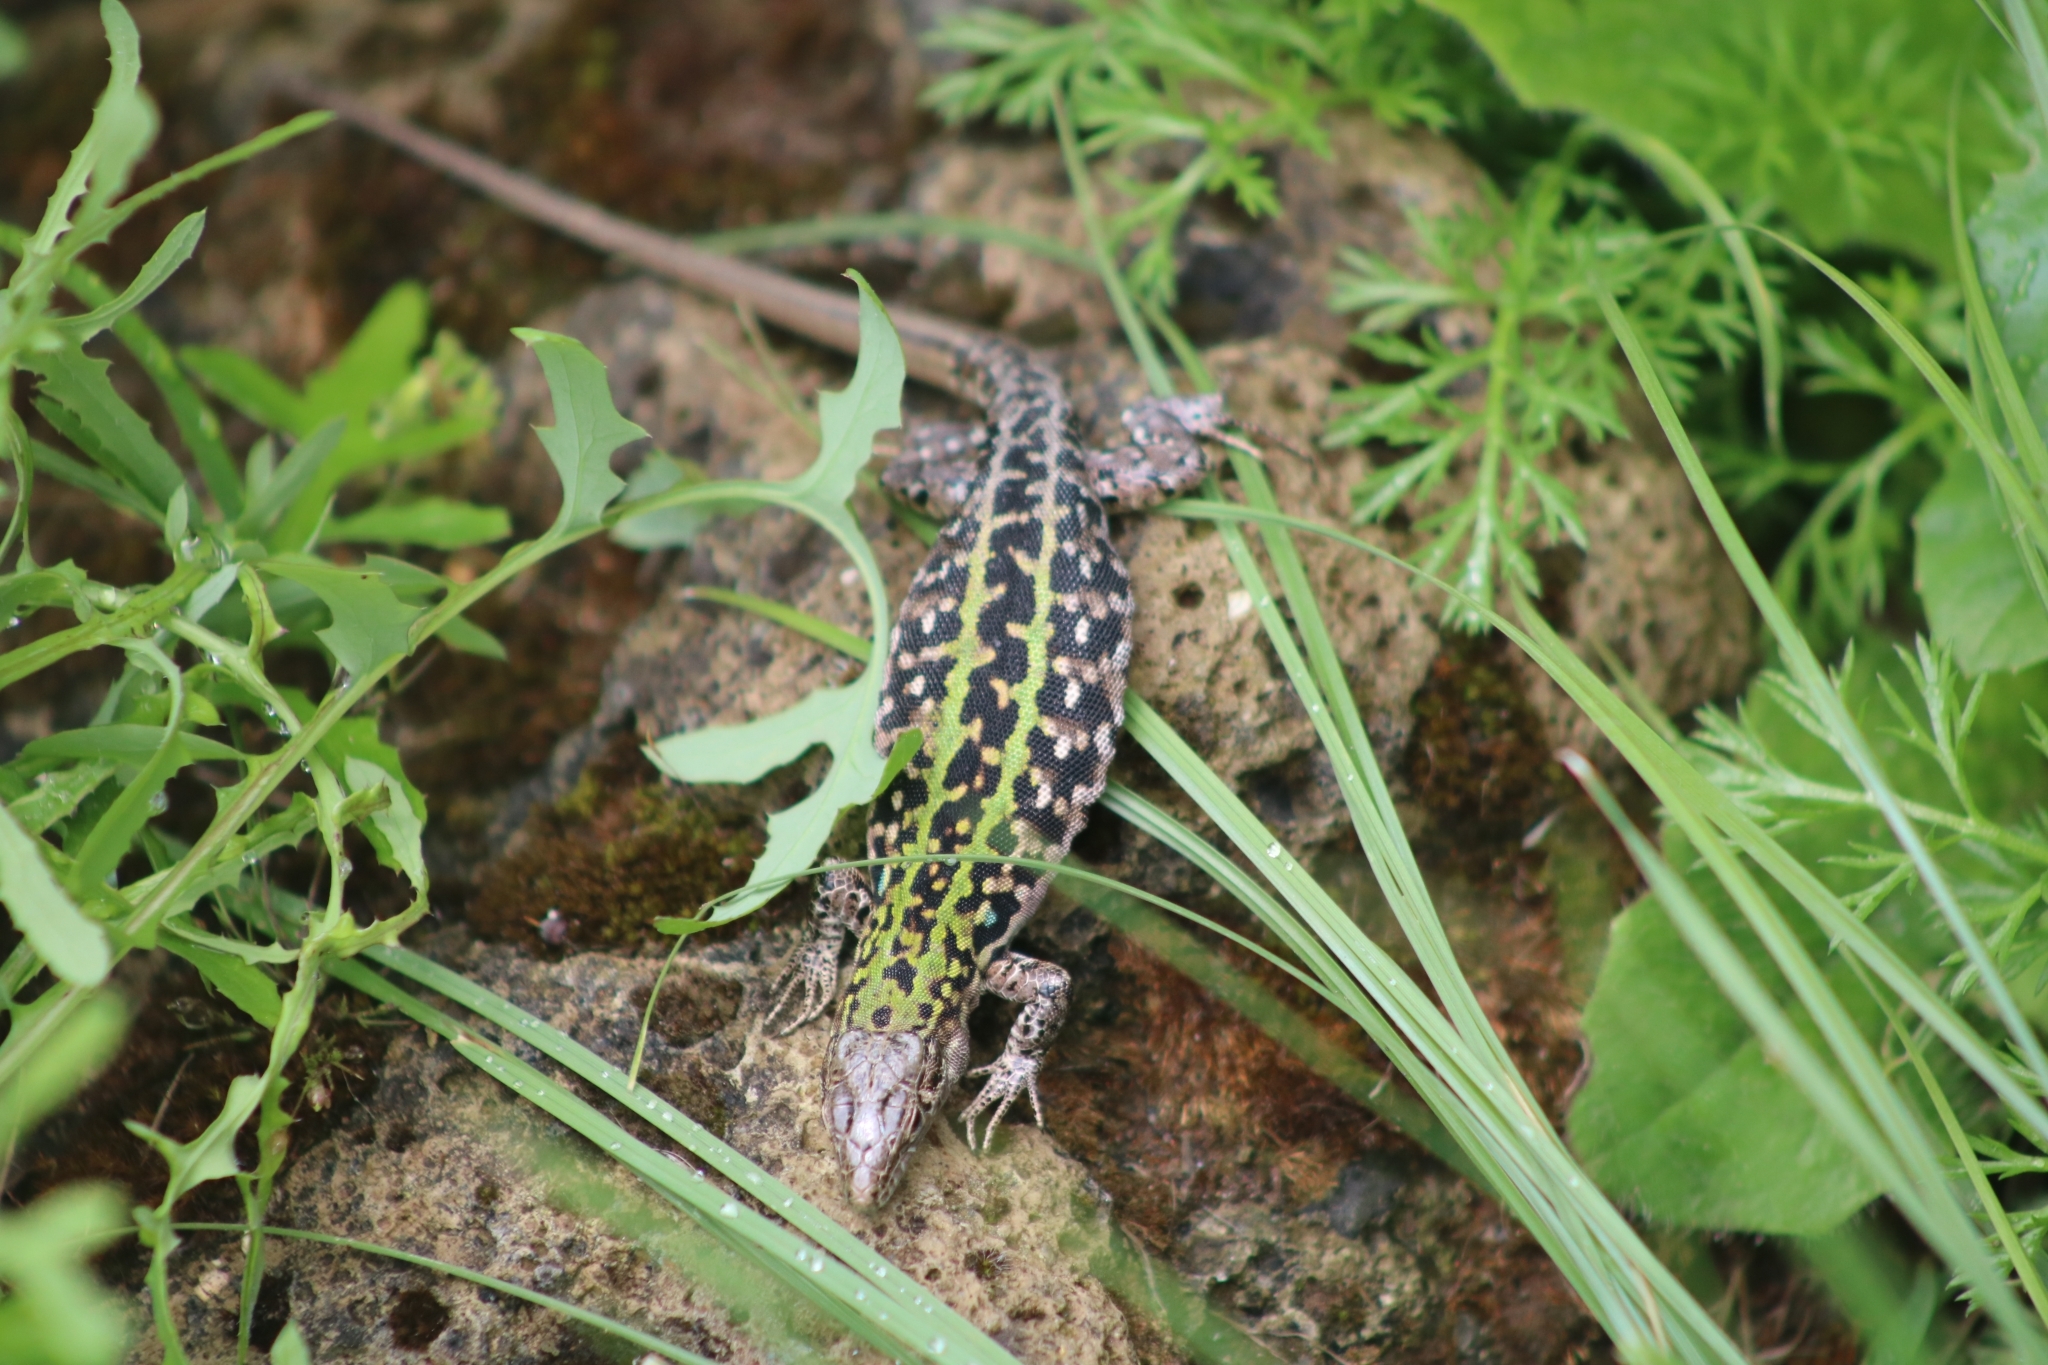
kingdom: Animalia
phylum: Chordata
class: Squamata
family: Lacertidae
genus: Podarcis
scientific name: Podarcis siculus
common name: Italian wall lizard
